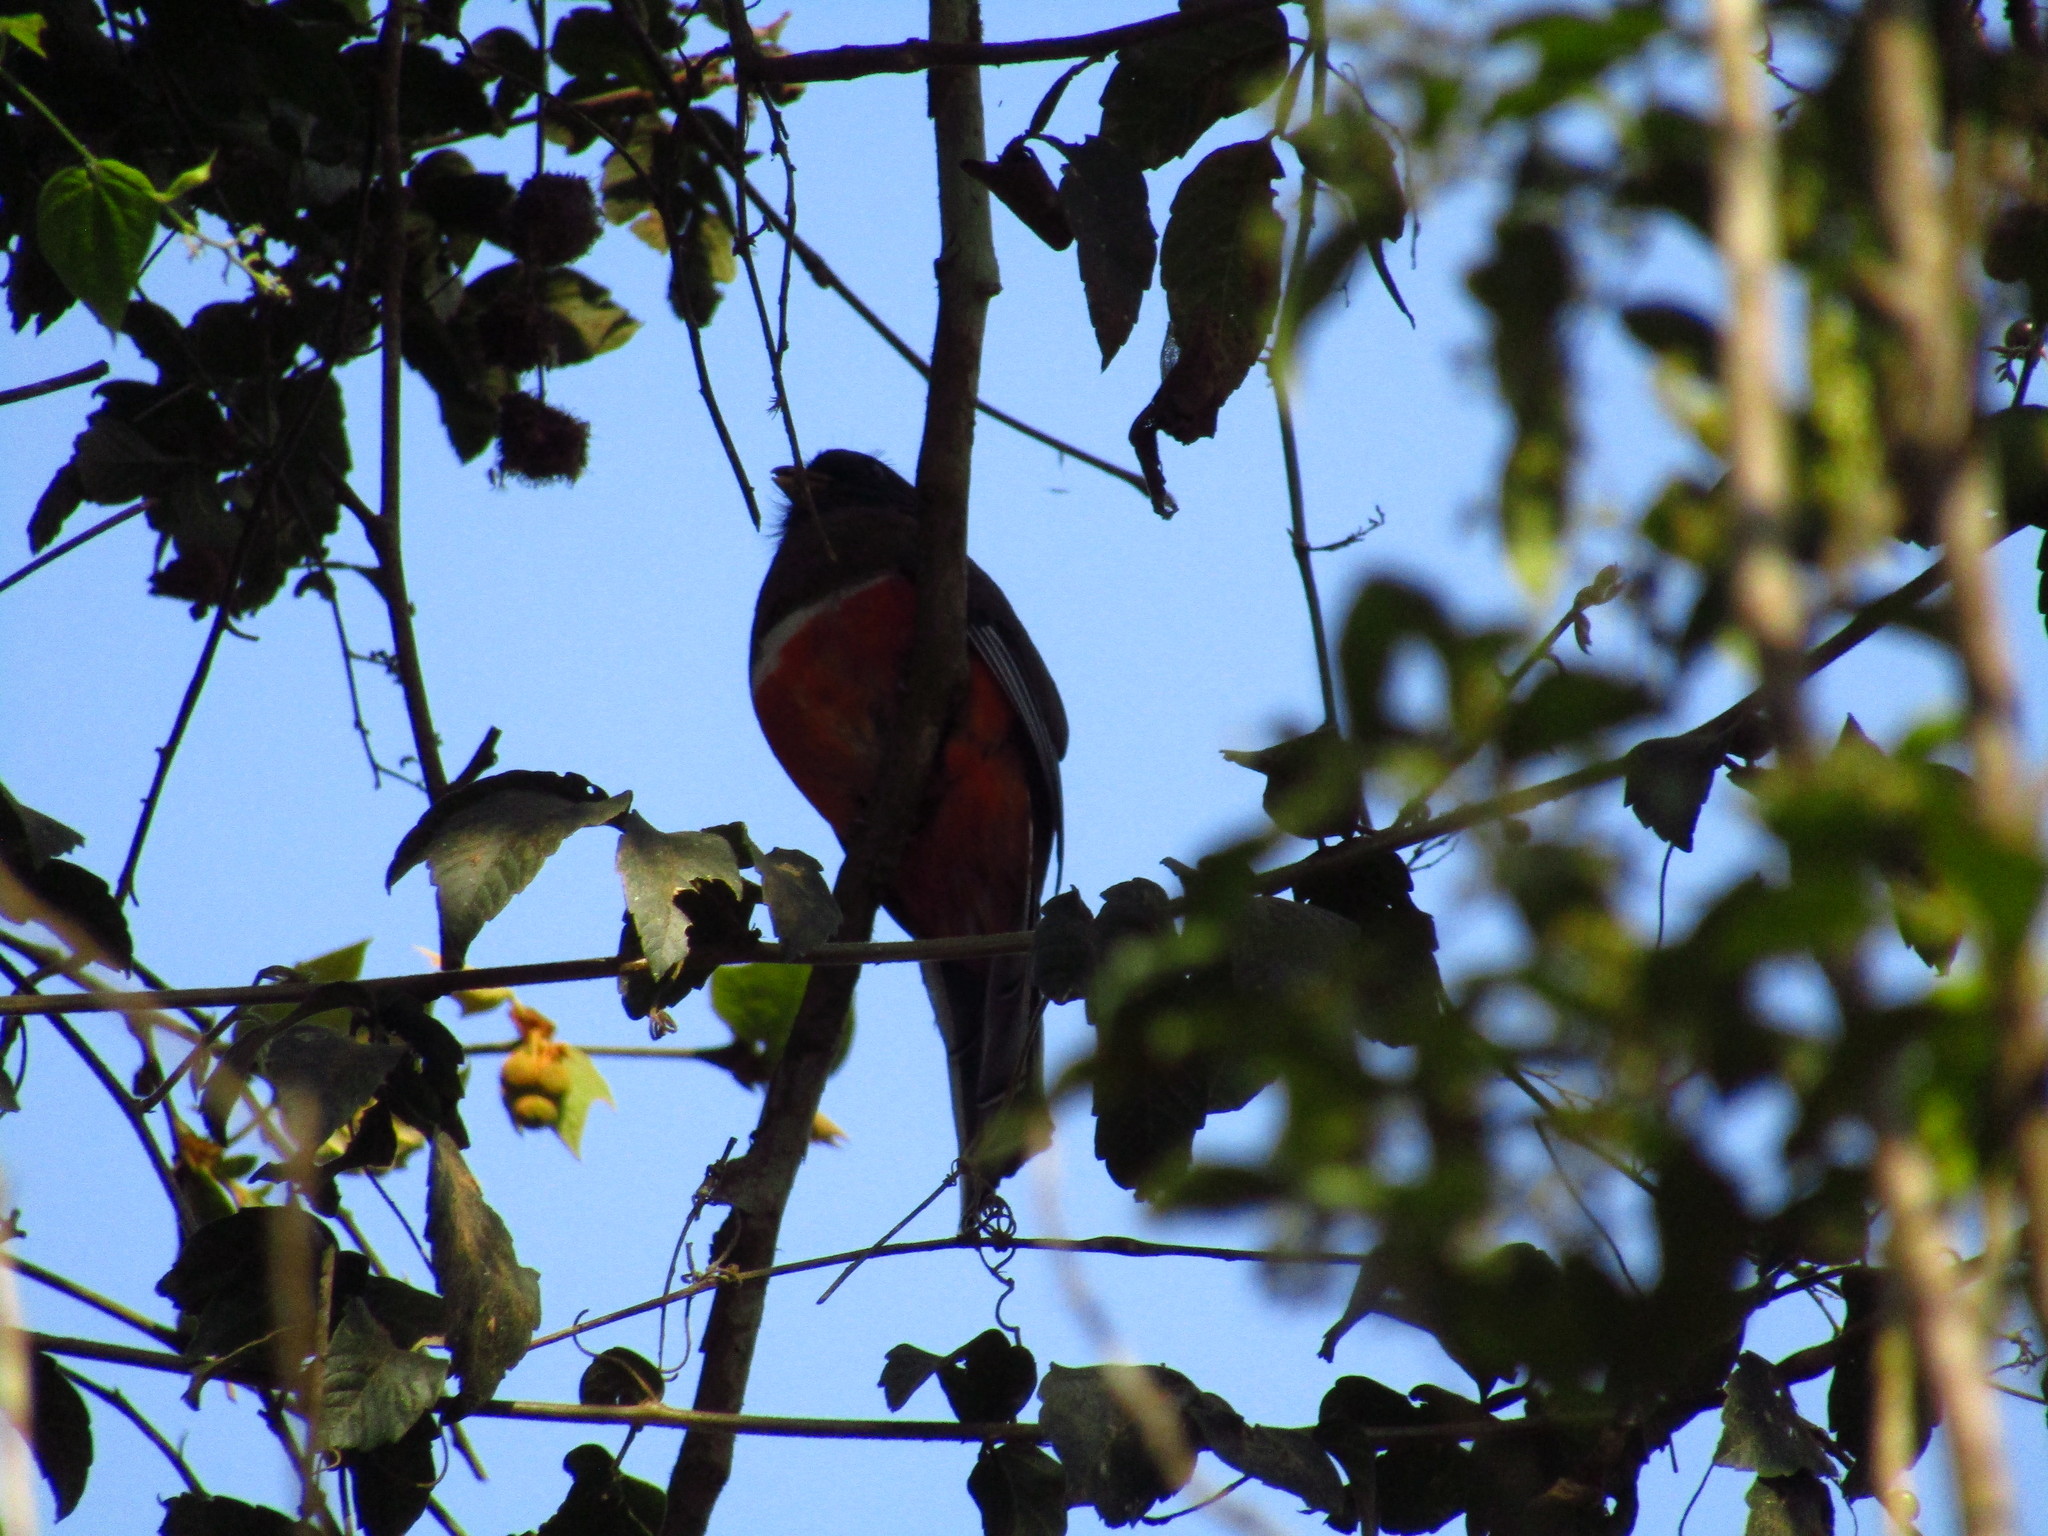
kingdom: Animalia
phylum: Chordata
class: Aves
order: Trogoniformes
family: Trogonidae
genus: Trogon
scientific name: Trogon collaris
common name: Collared trogon
